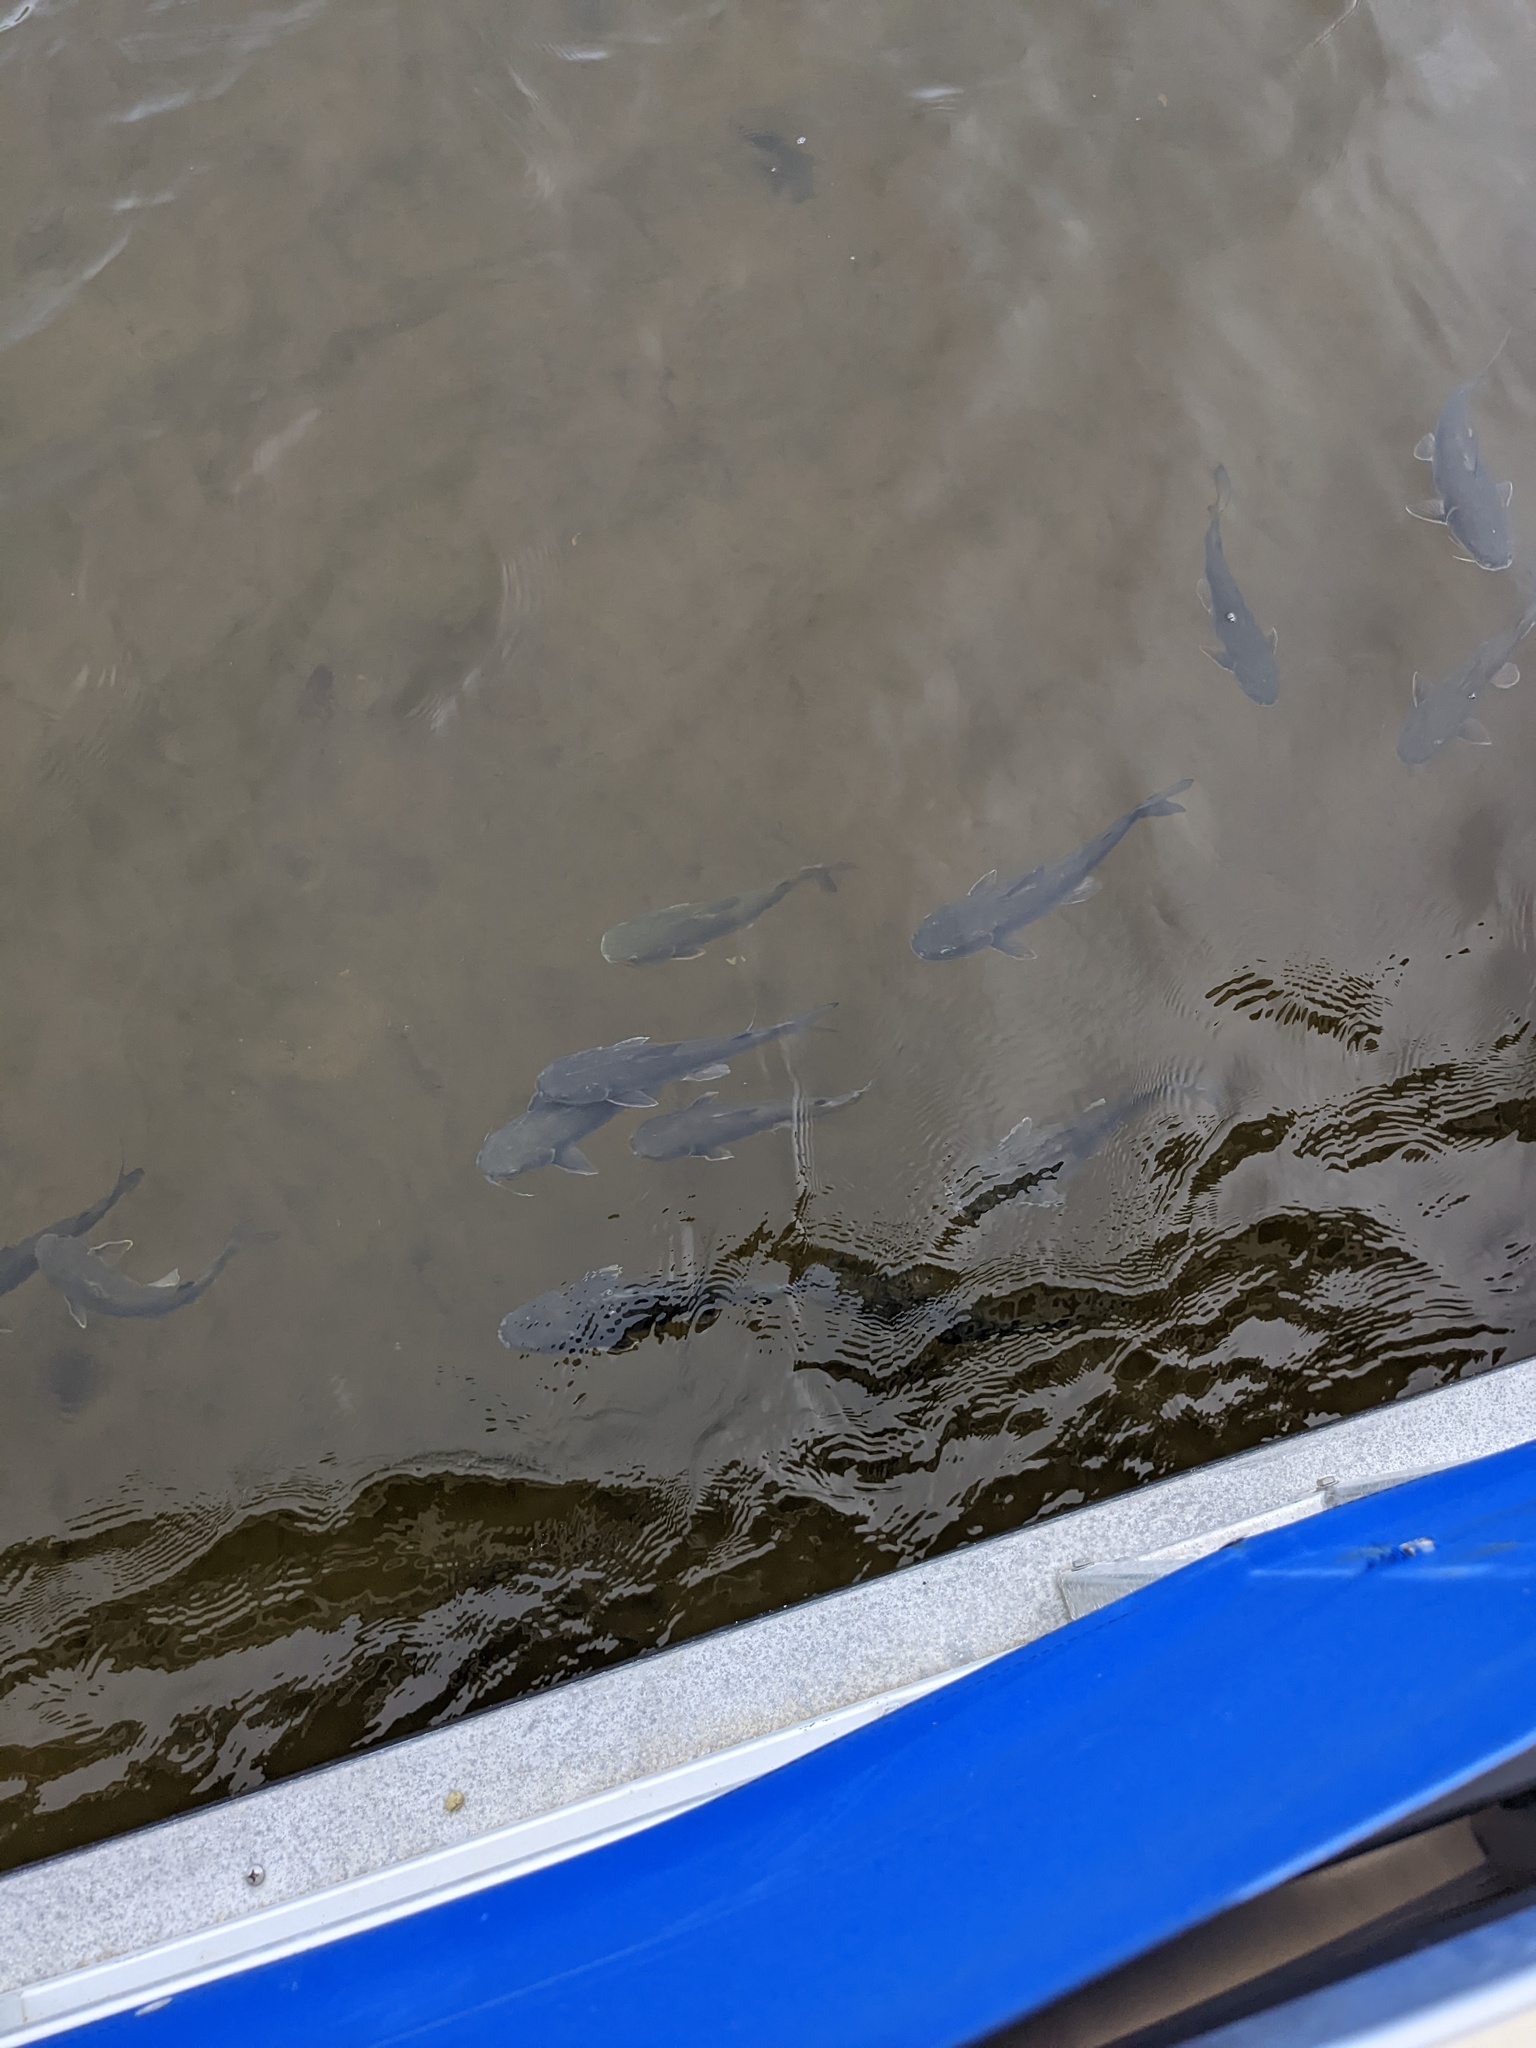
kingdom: Animalia
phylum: Chordata
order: Siluriformes
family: Ariidae
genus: Ariopsis
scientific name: Ariopsis felis
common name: Hardhead catfish
